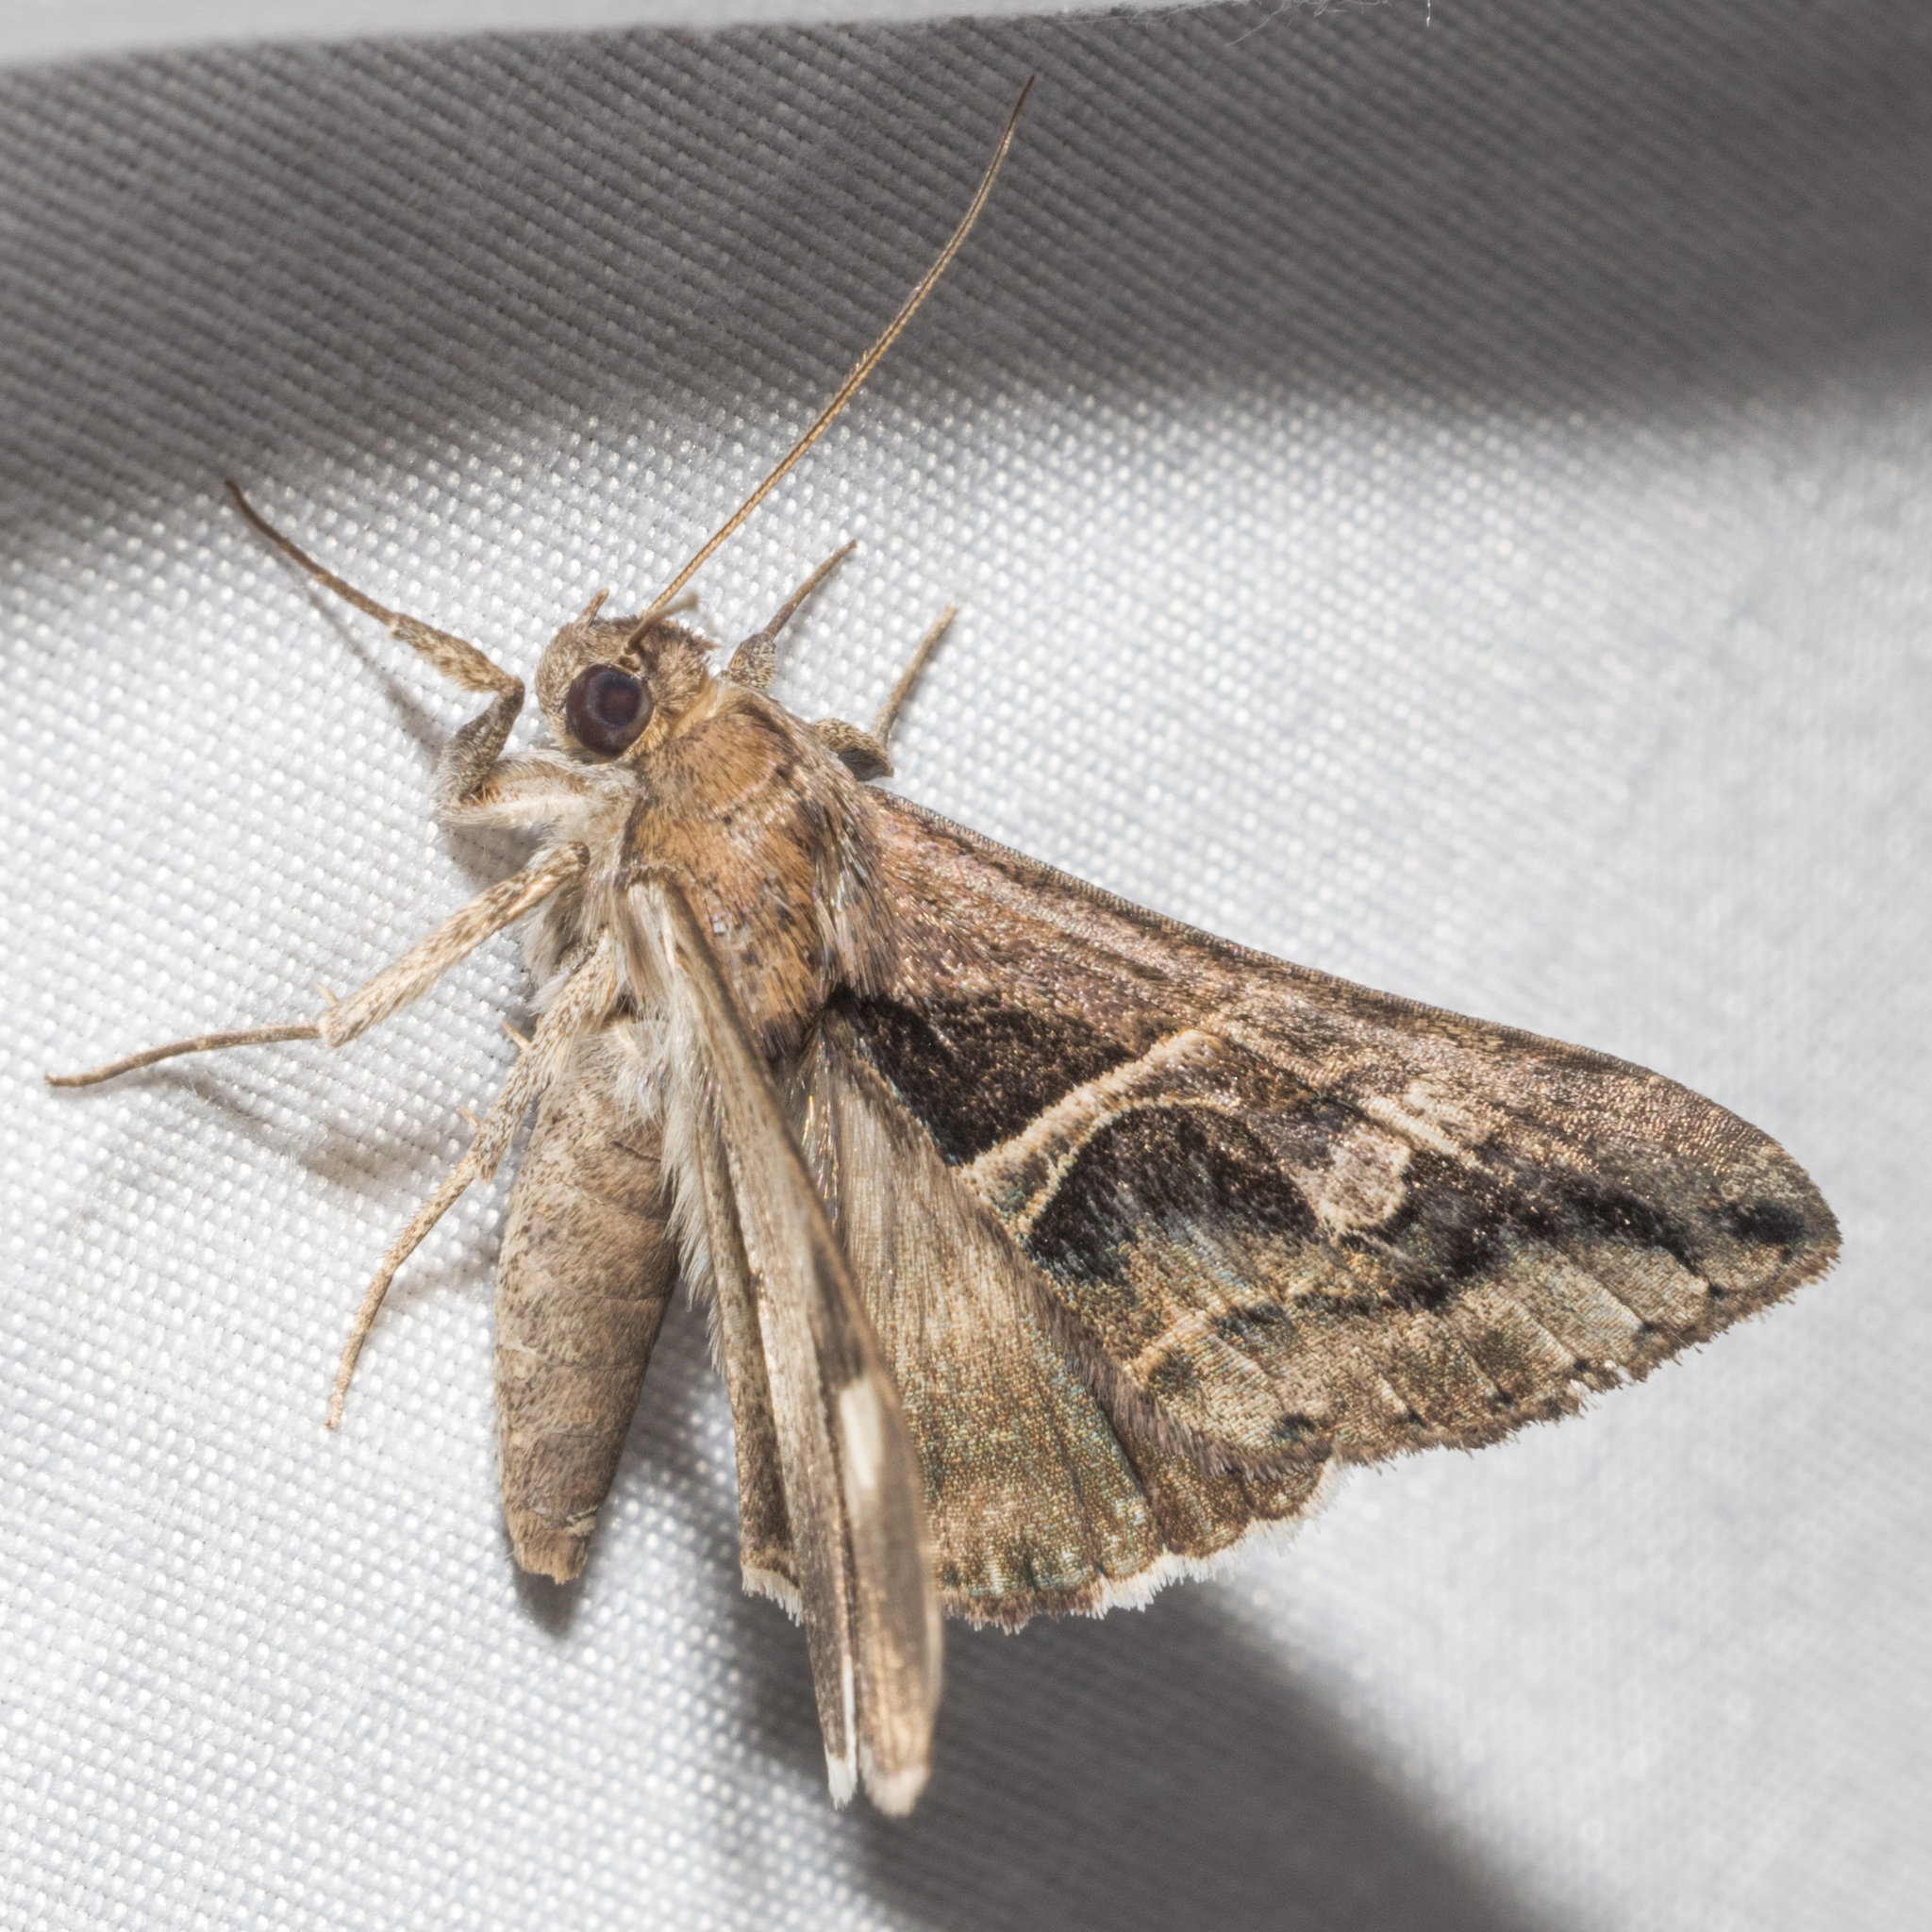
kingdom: Animalia
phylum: Arthropoda
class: Insecta
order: Lepidoptera
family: Erebidae
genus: Melipotis
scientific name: Melipotis cellaris
